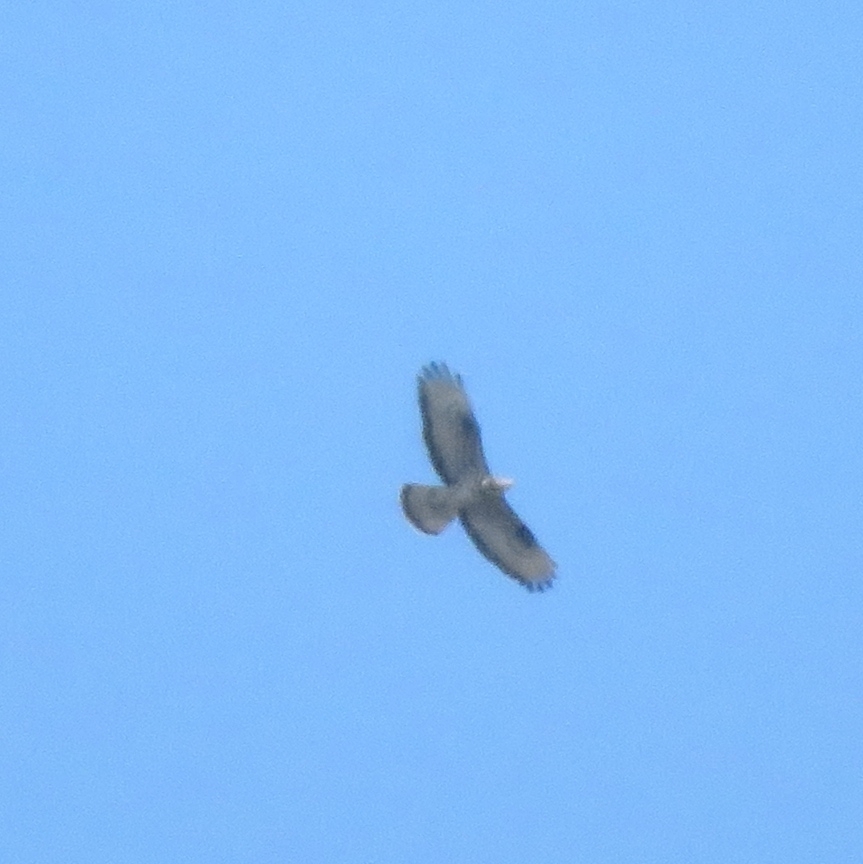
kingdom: Animalia
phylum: Chordata
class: Aves
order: Accipitriformes
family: Accipitridae
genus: Pernis
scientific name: Pernis apivorus
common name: European honey buzzard
